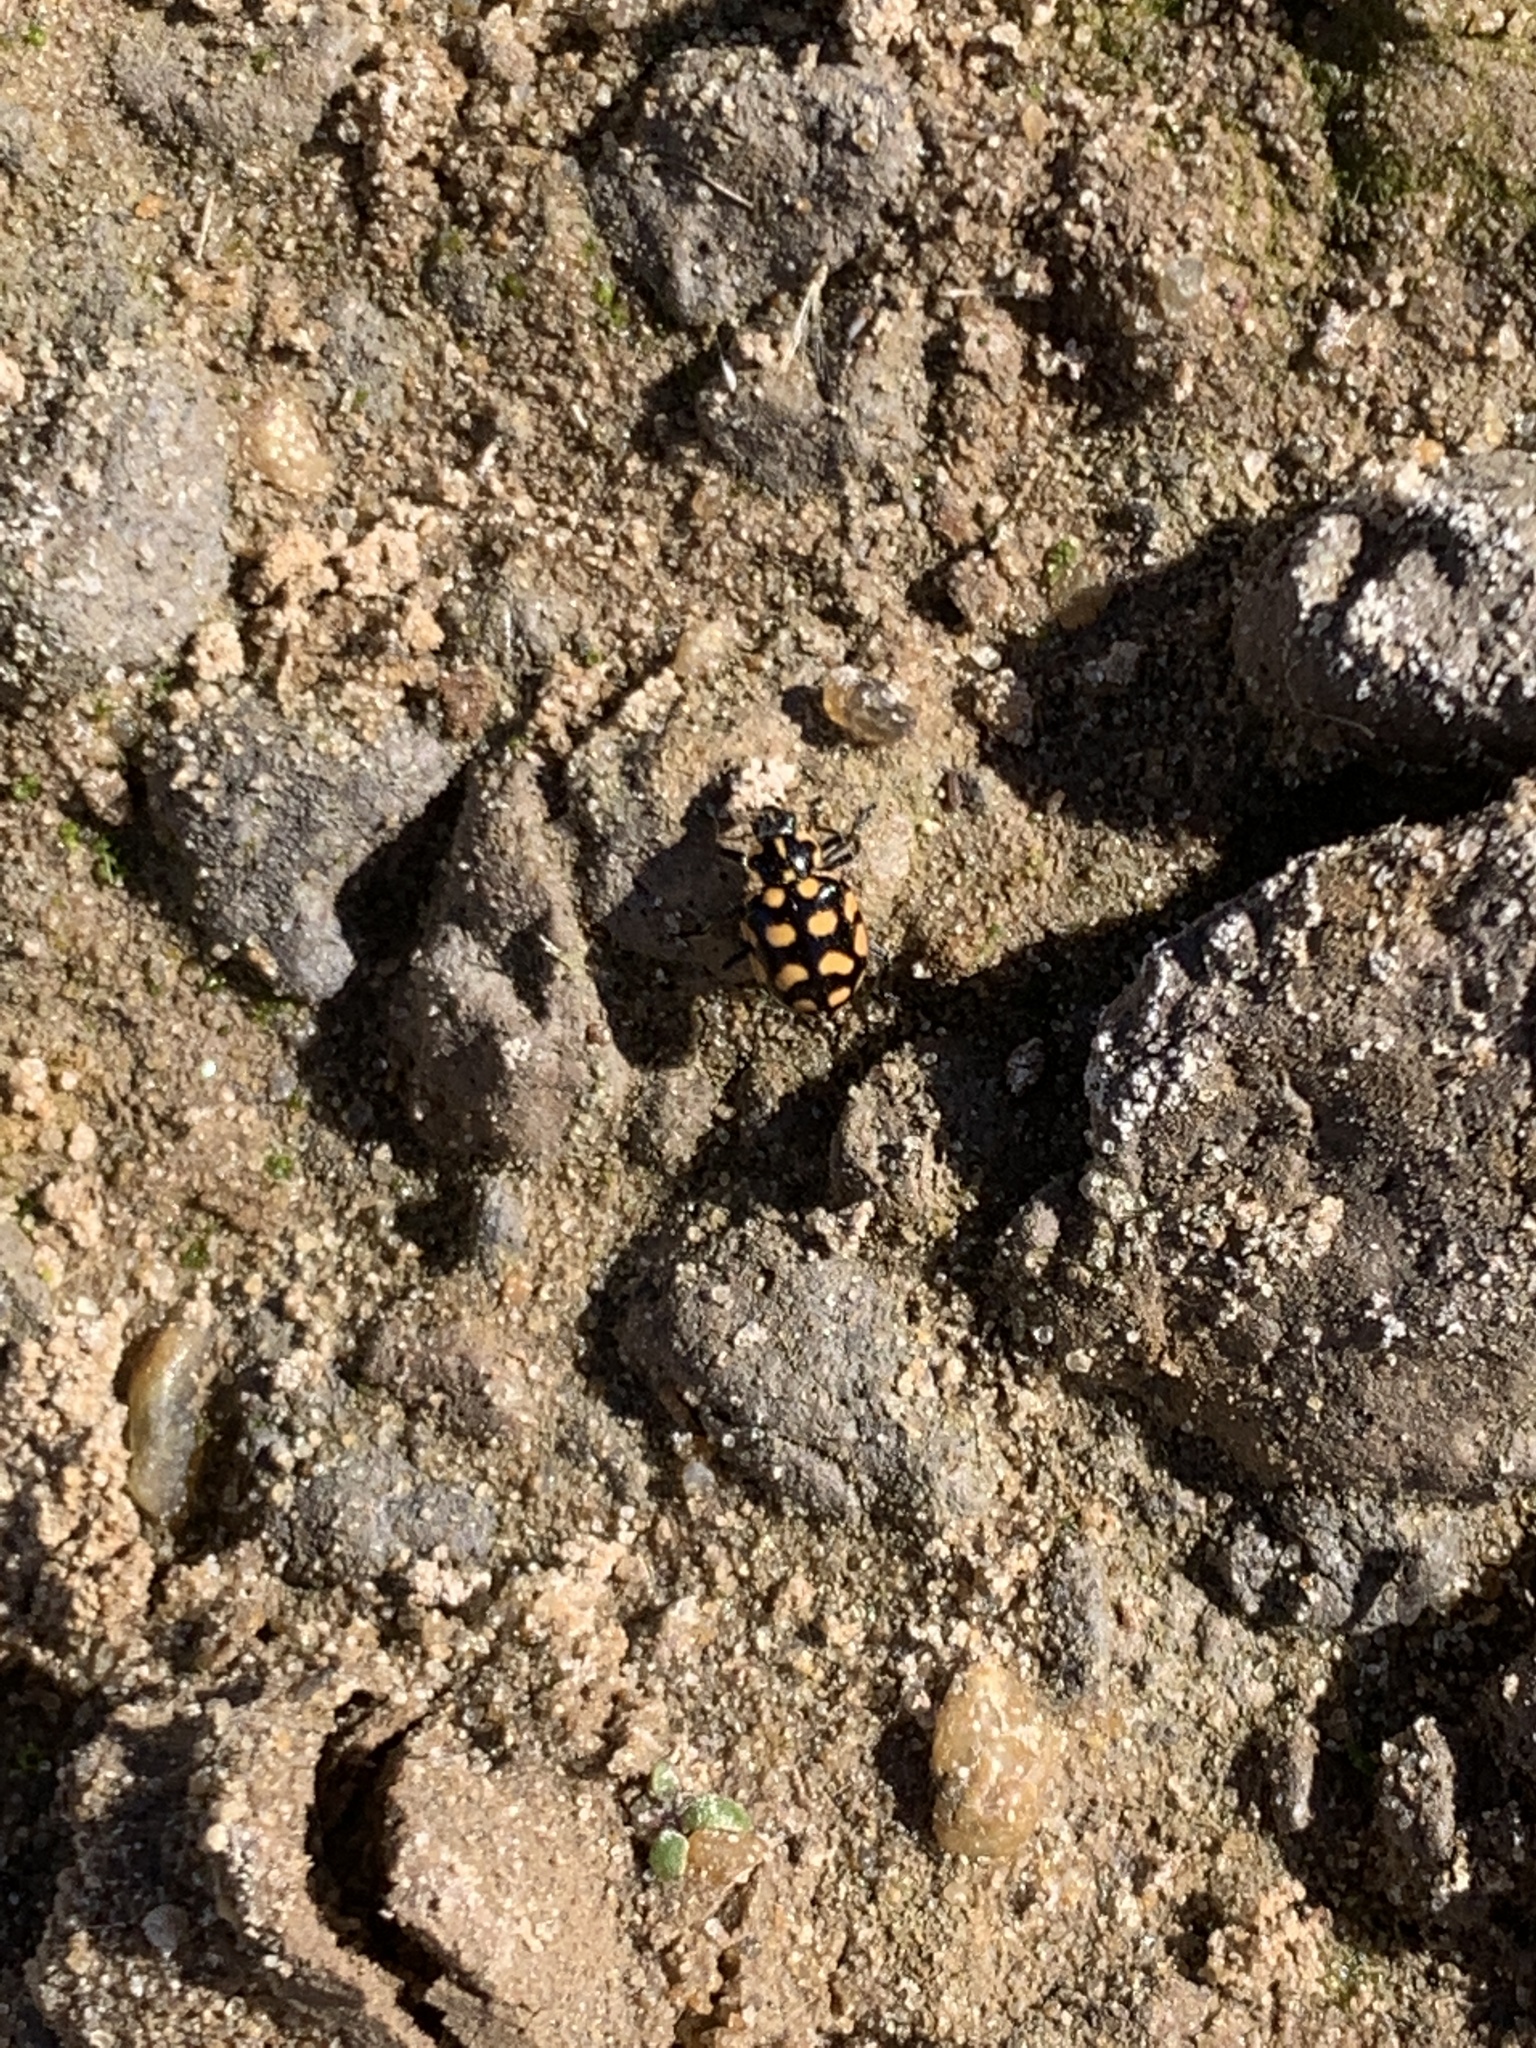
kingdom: Animalia
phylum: Arthropoda
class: Insecta
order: Coleoptera
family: Coccinellidae
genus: Coleomegilla
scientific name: Coleomegilla
